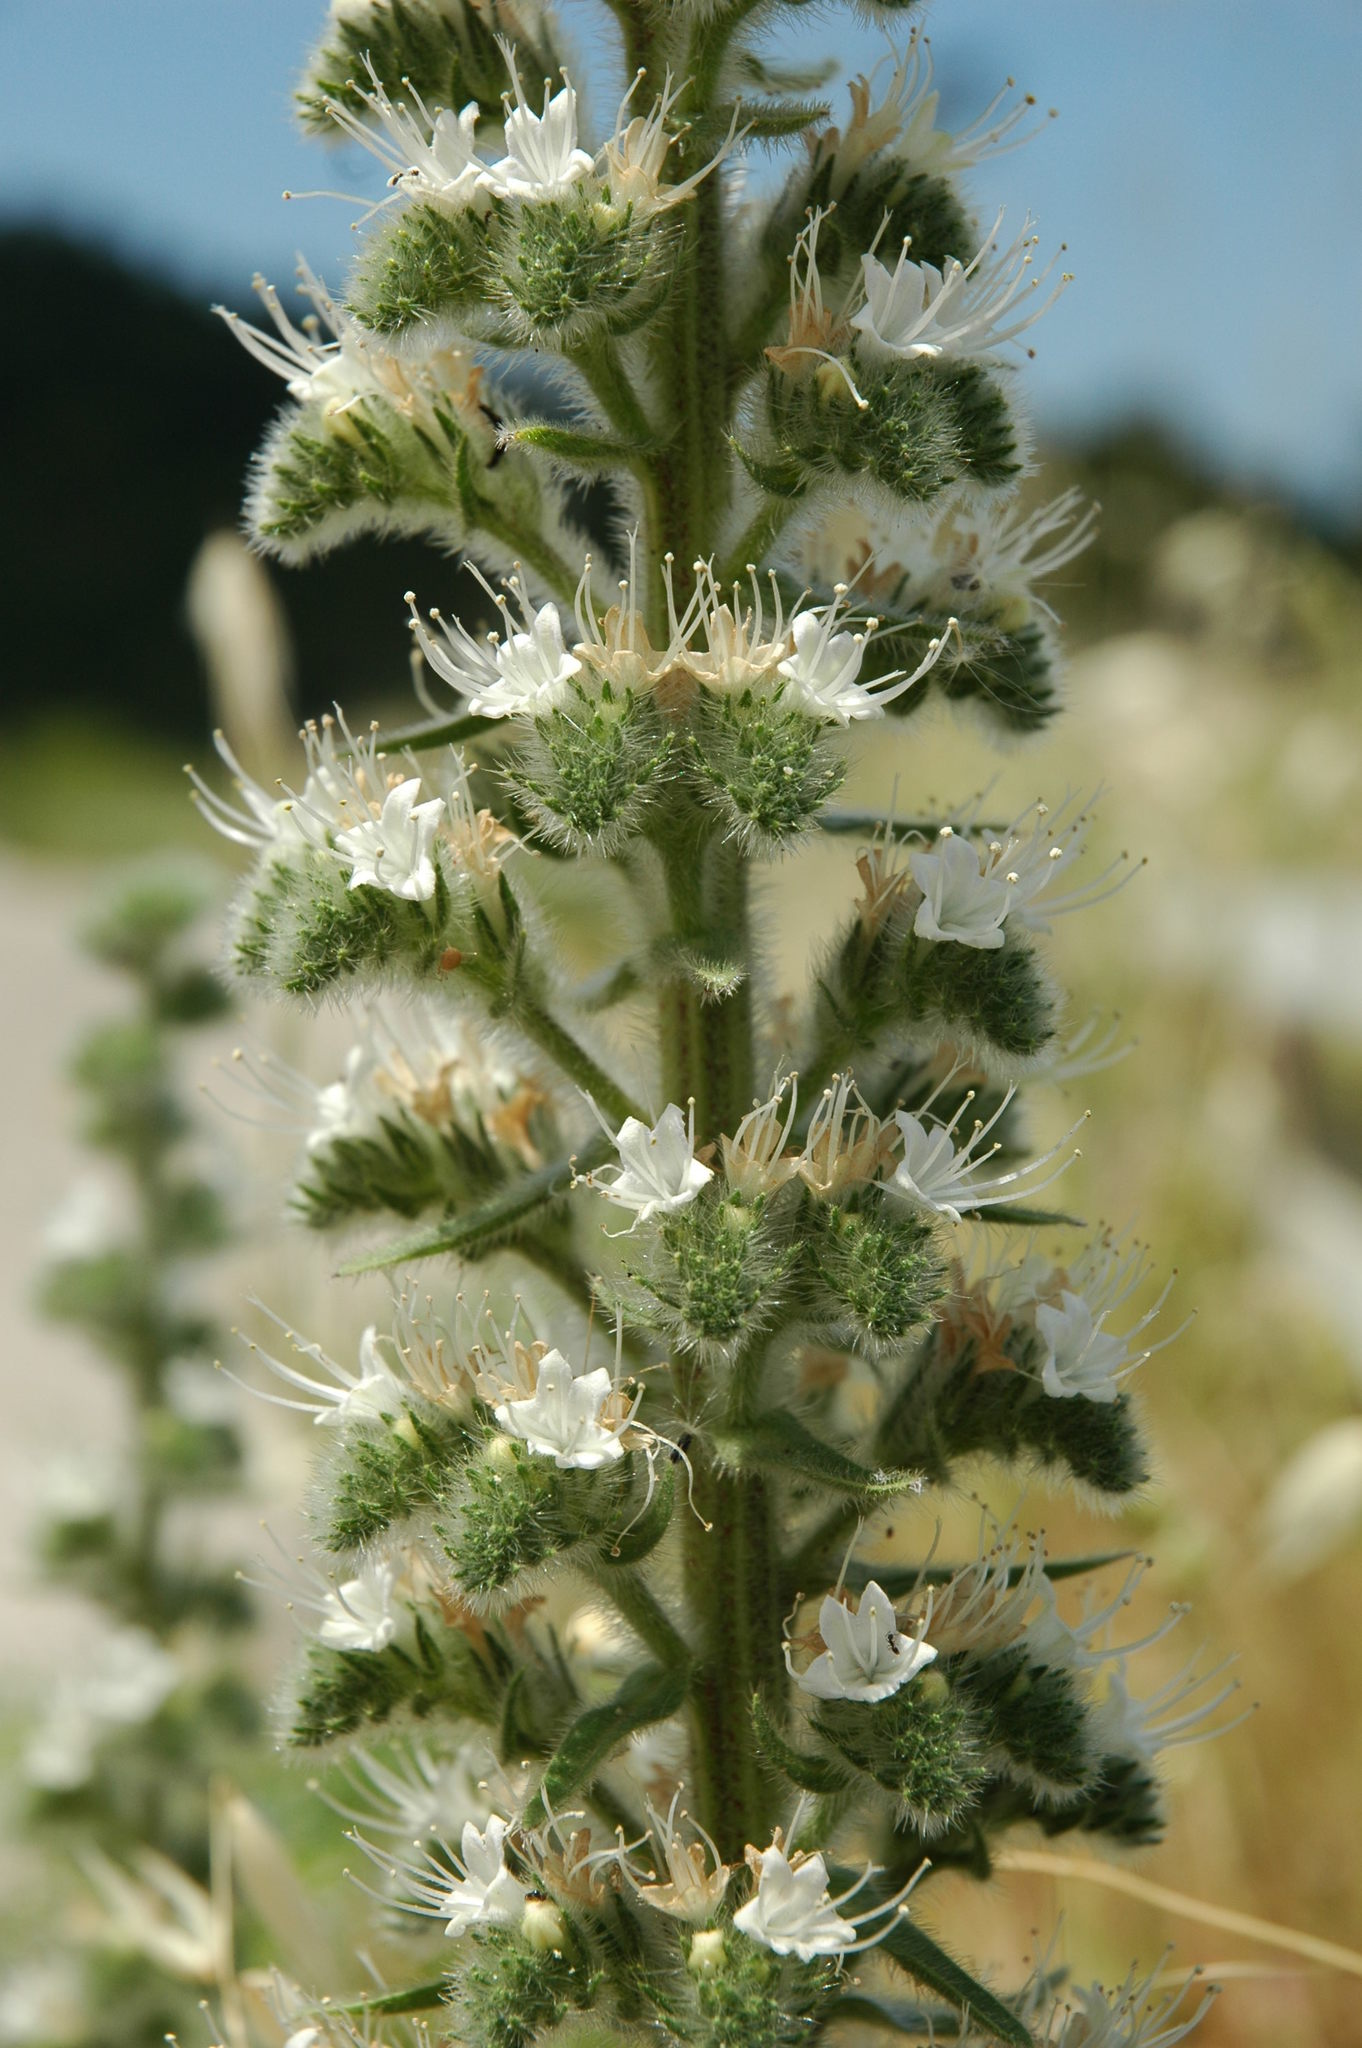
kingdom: Plantae
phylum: Tracheophyta
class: Magnoliopsida
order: Boraginales
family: Boraginaceae
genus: Echium
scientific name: Echium italicum
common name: Italian viper's bugloss
